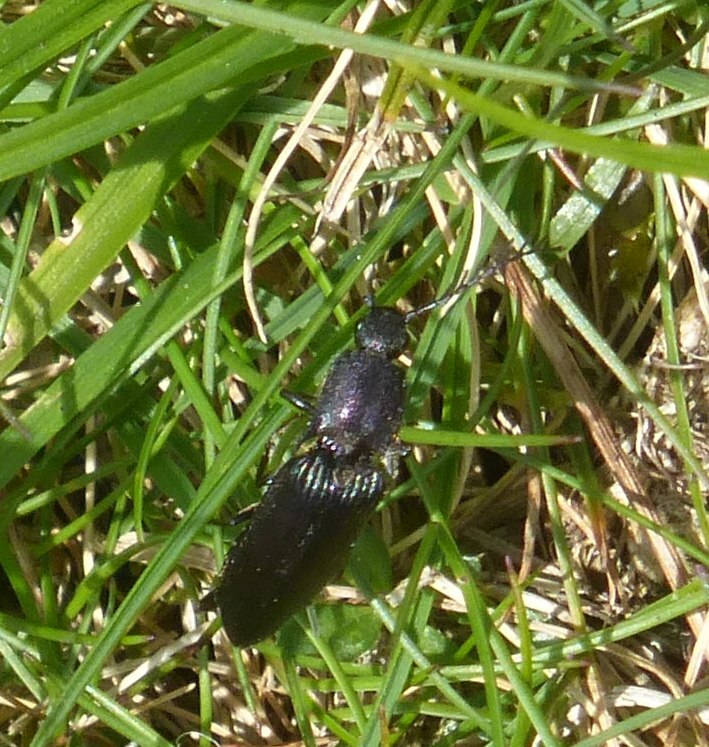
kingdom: Animalia
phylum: Arthropoda
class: Insecta
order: Coleoptera
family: Elateridae
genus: Ctenicera
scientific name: Ctenicera cuprea
